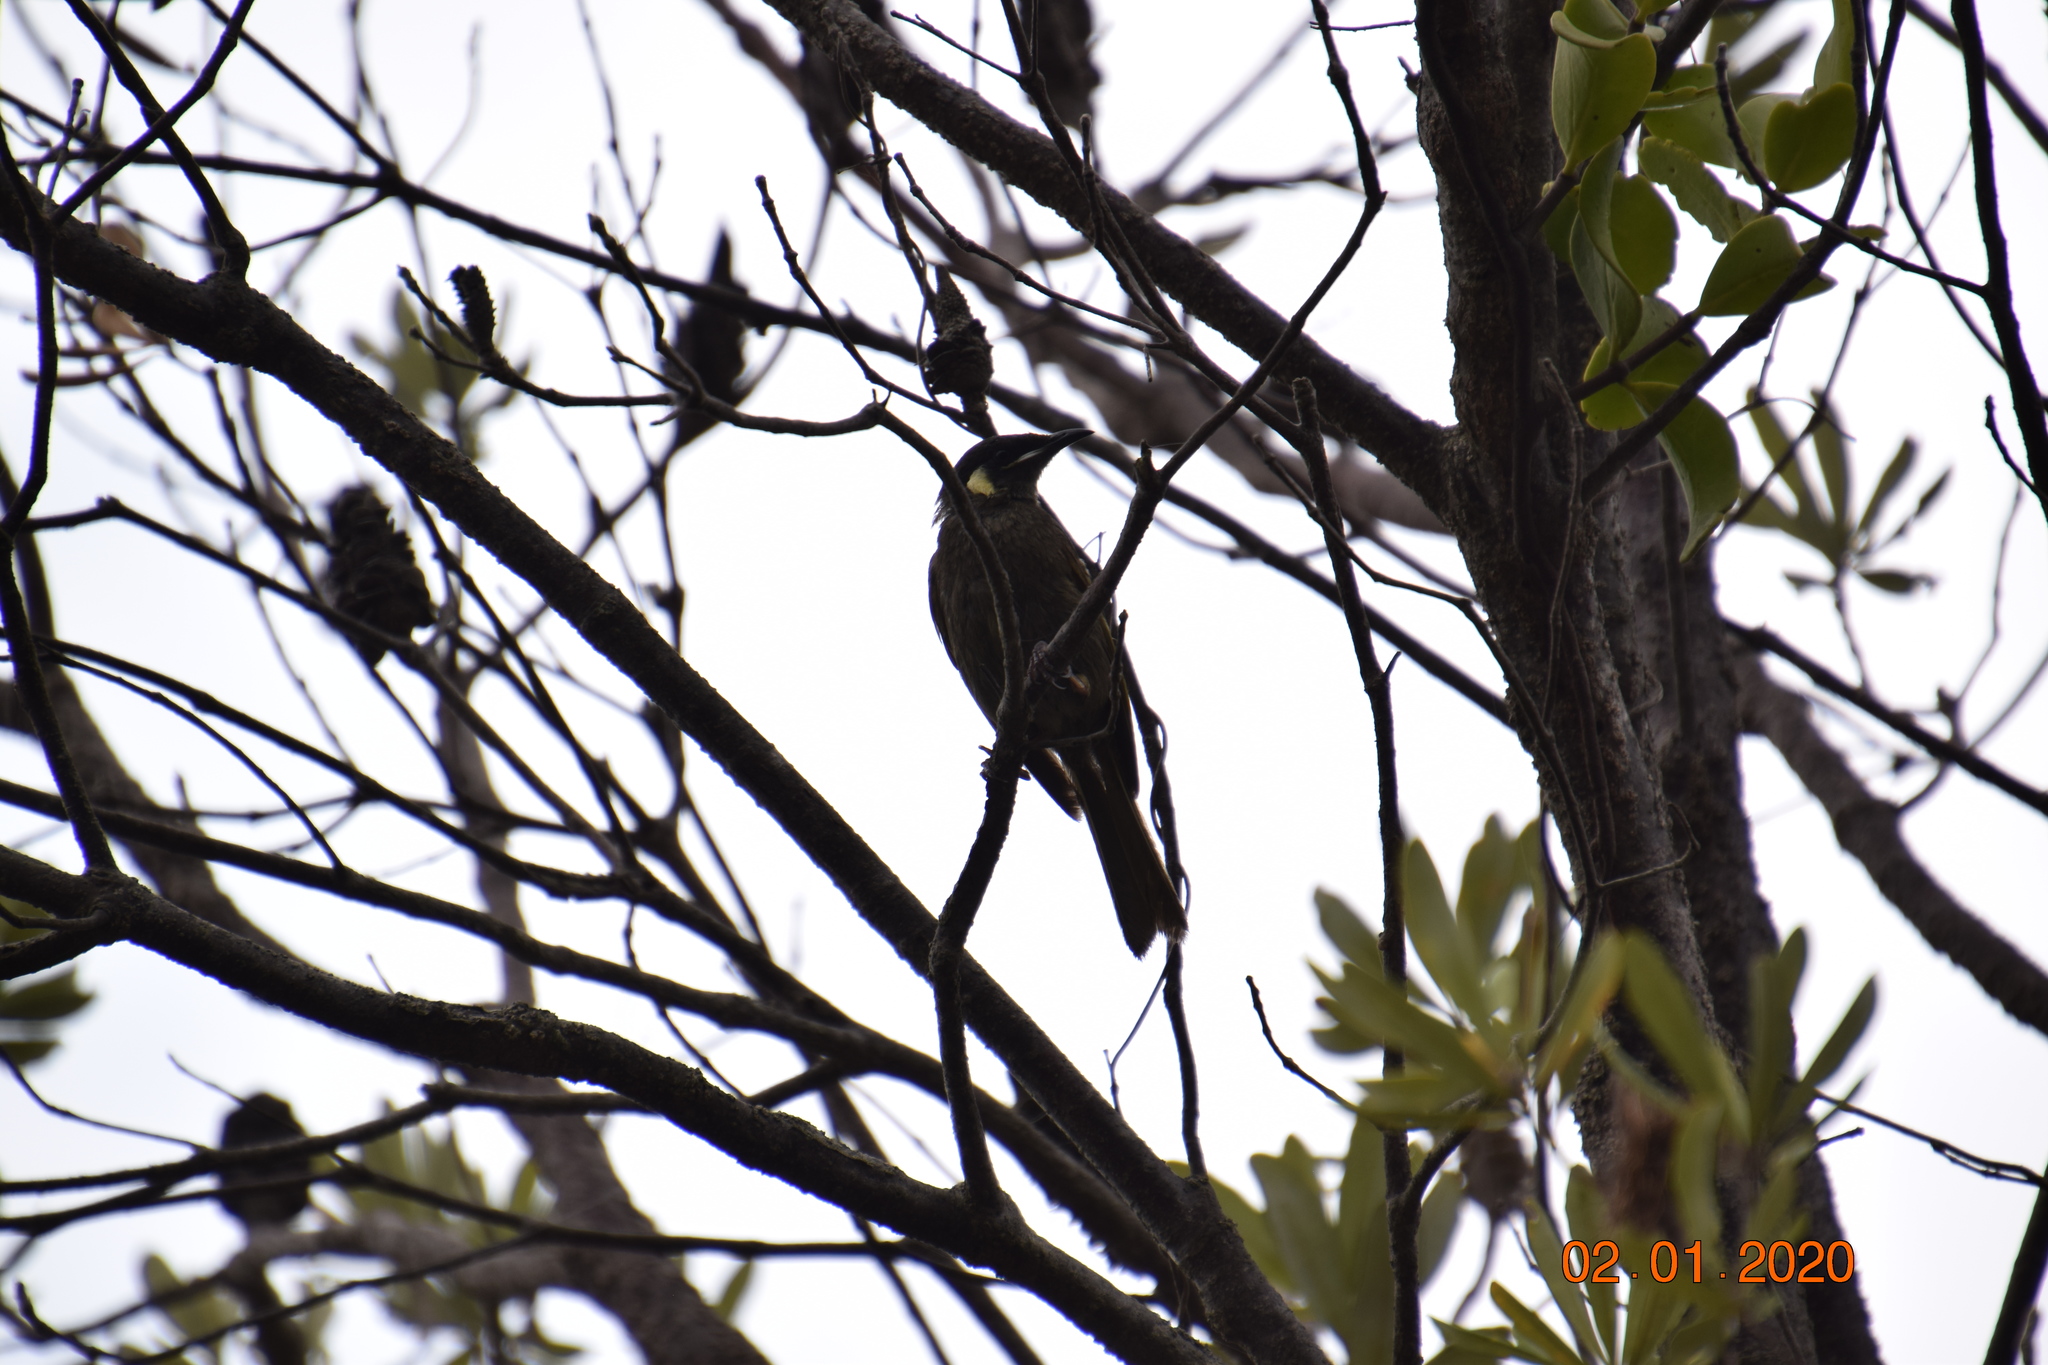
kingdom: Animalia
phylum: Chordata
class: Aves
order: Passeriformes
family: Meliphagidae
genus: Meliphaga
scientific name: Meliphaga lewinii
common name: Lewin's honeyeater
